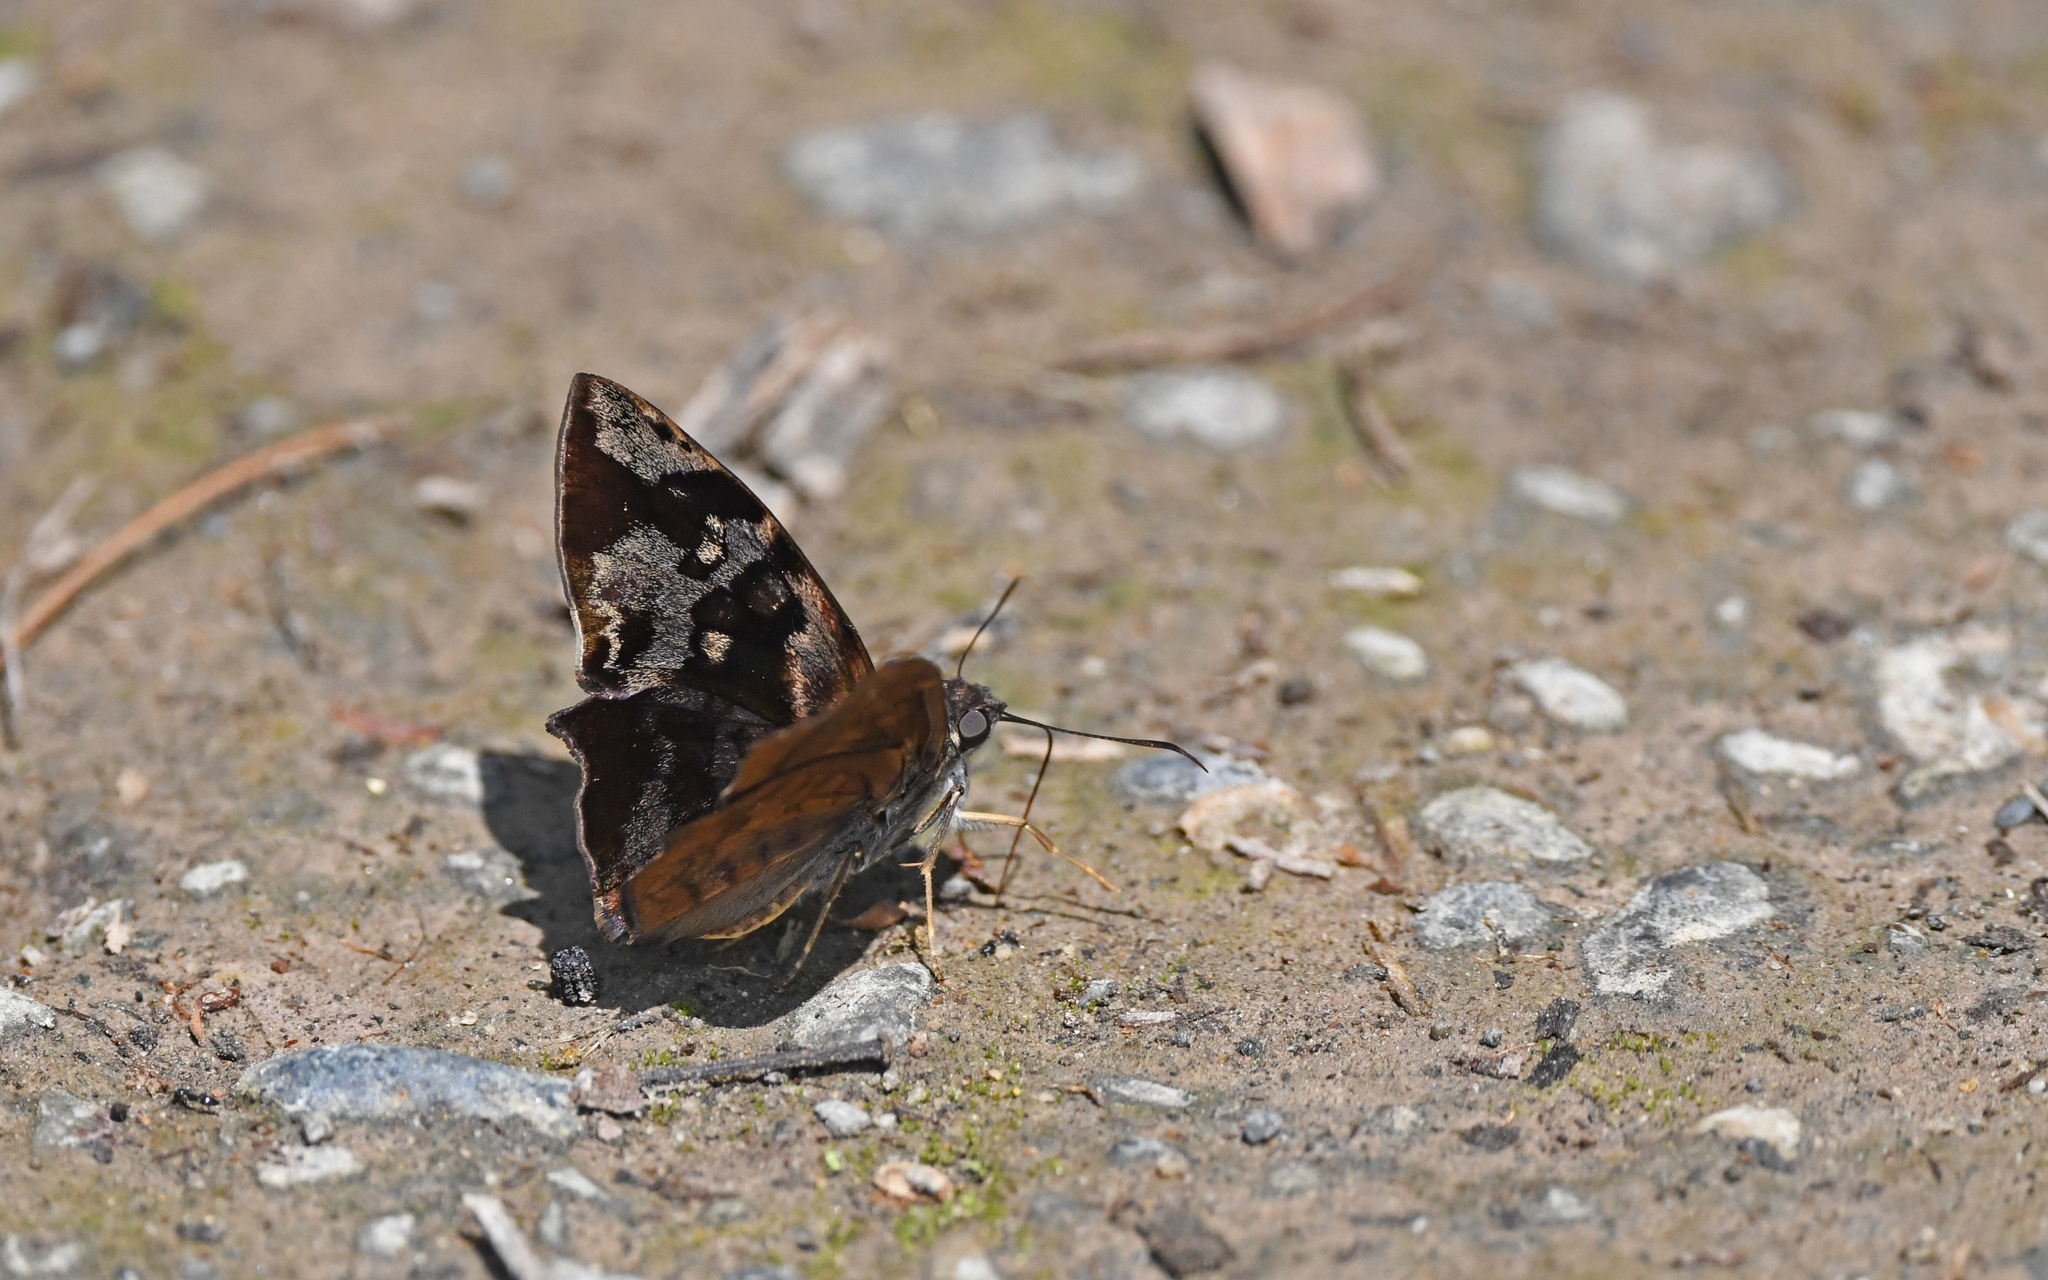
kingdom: Animalia
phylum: Arthropoda
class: Insecta
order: Lepidoptera
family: Hesperiidae
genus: Antigonus
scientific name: Antigonus nearchus
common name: Death-mask spurwing
